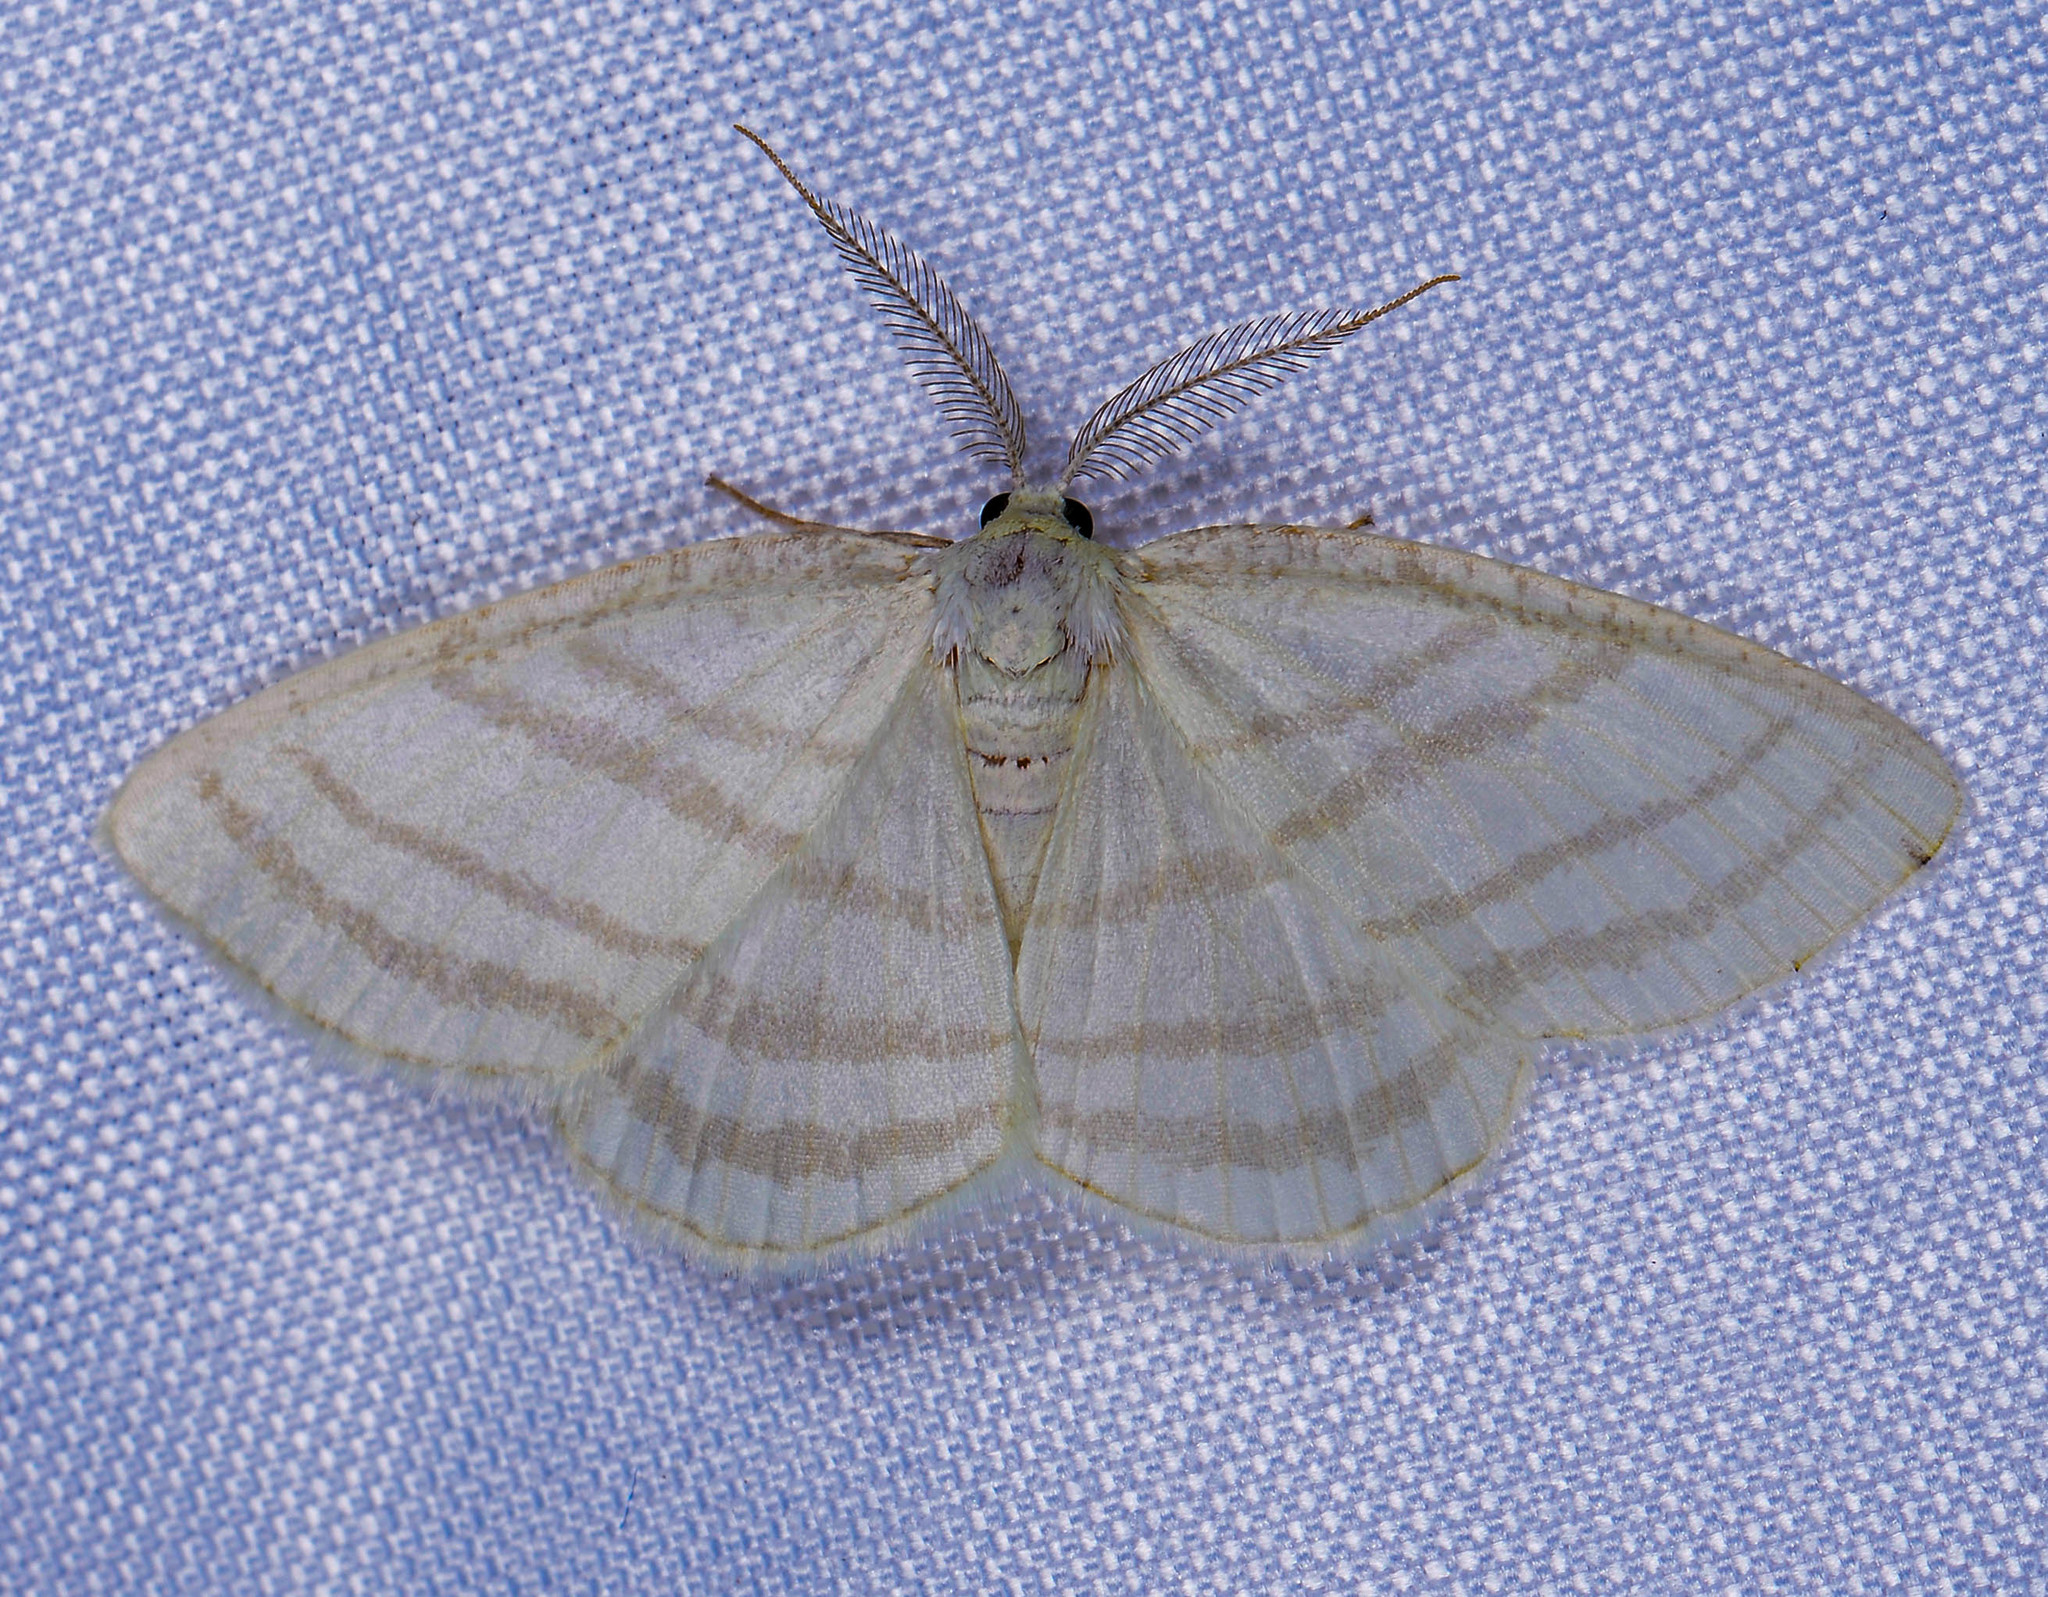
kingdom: Animalia
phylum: Arthropoda
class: Insecta
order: Lepidoptera
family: Geometridae
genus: Cabera
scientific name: Cabera quadrifasciaria
